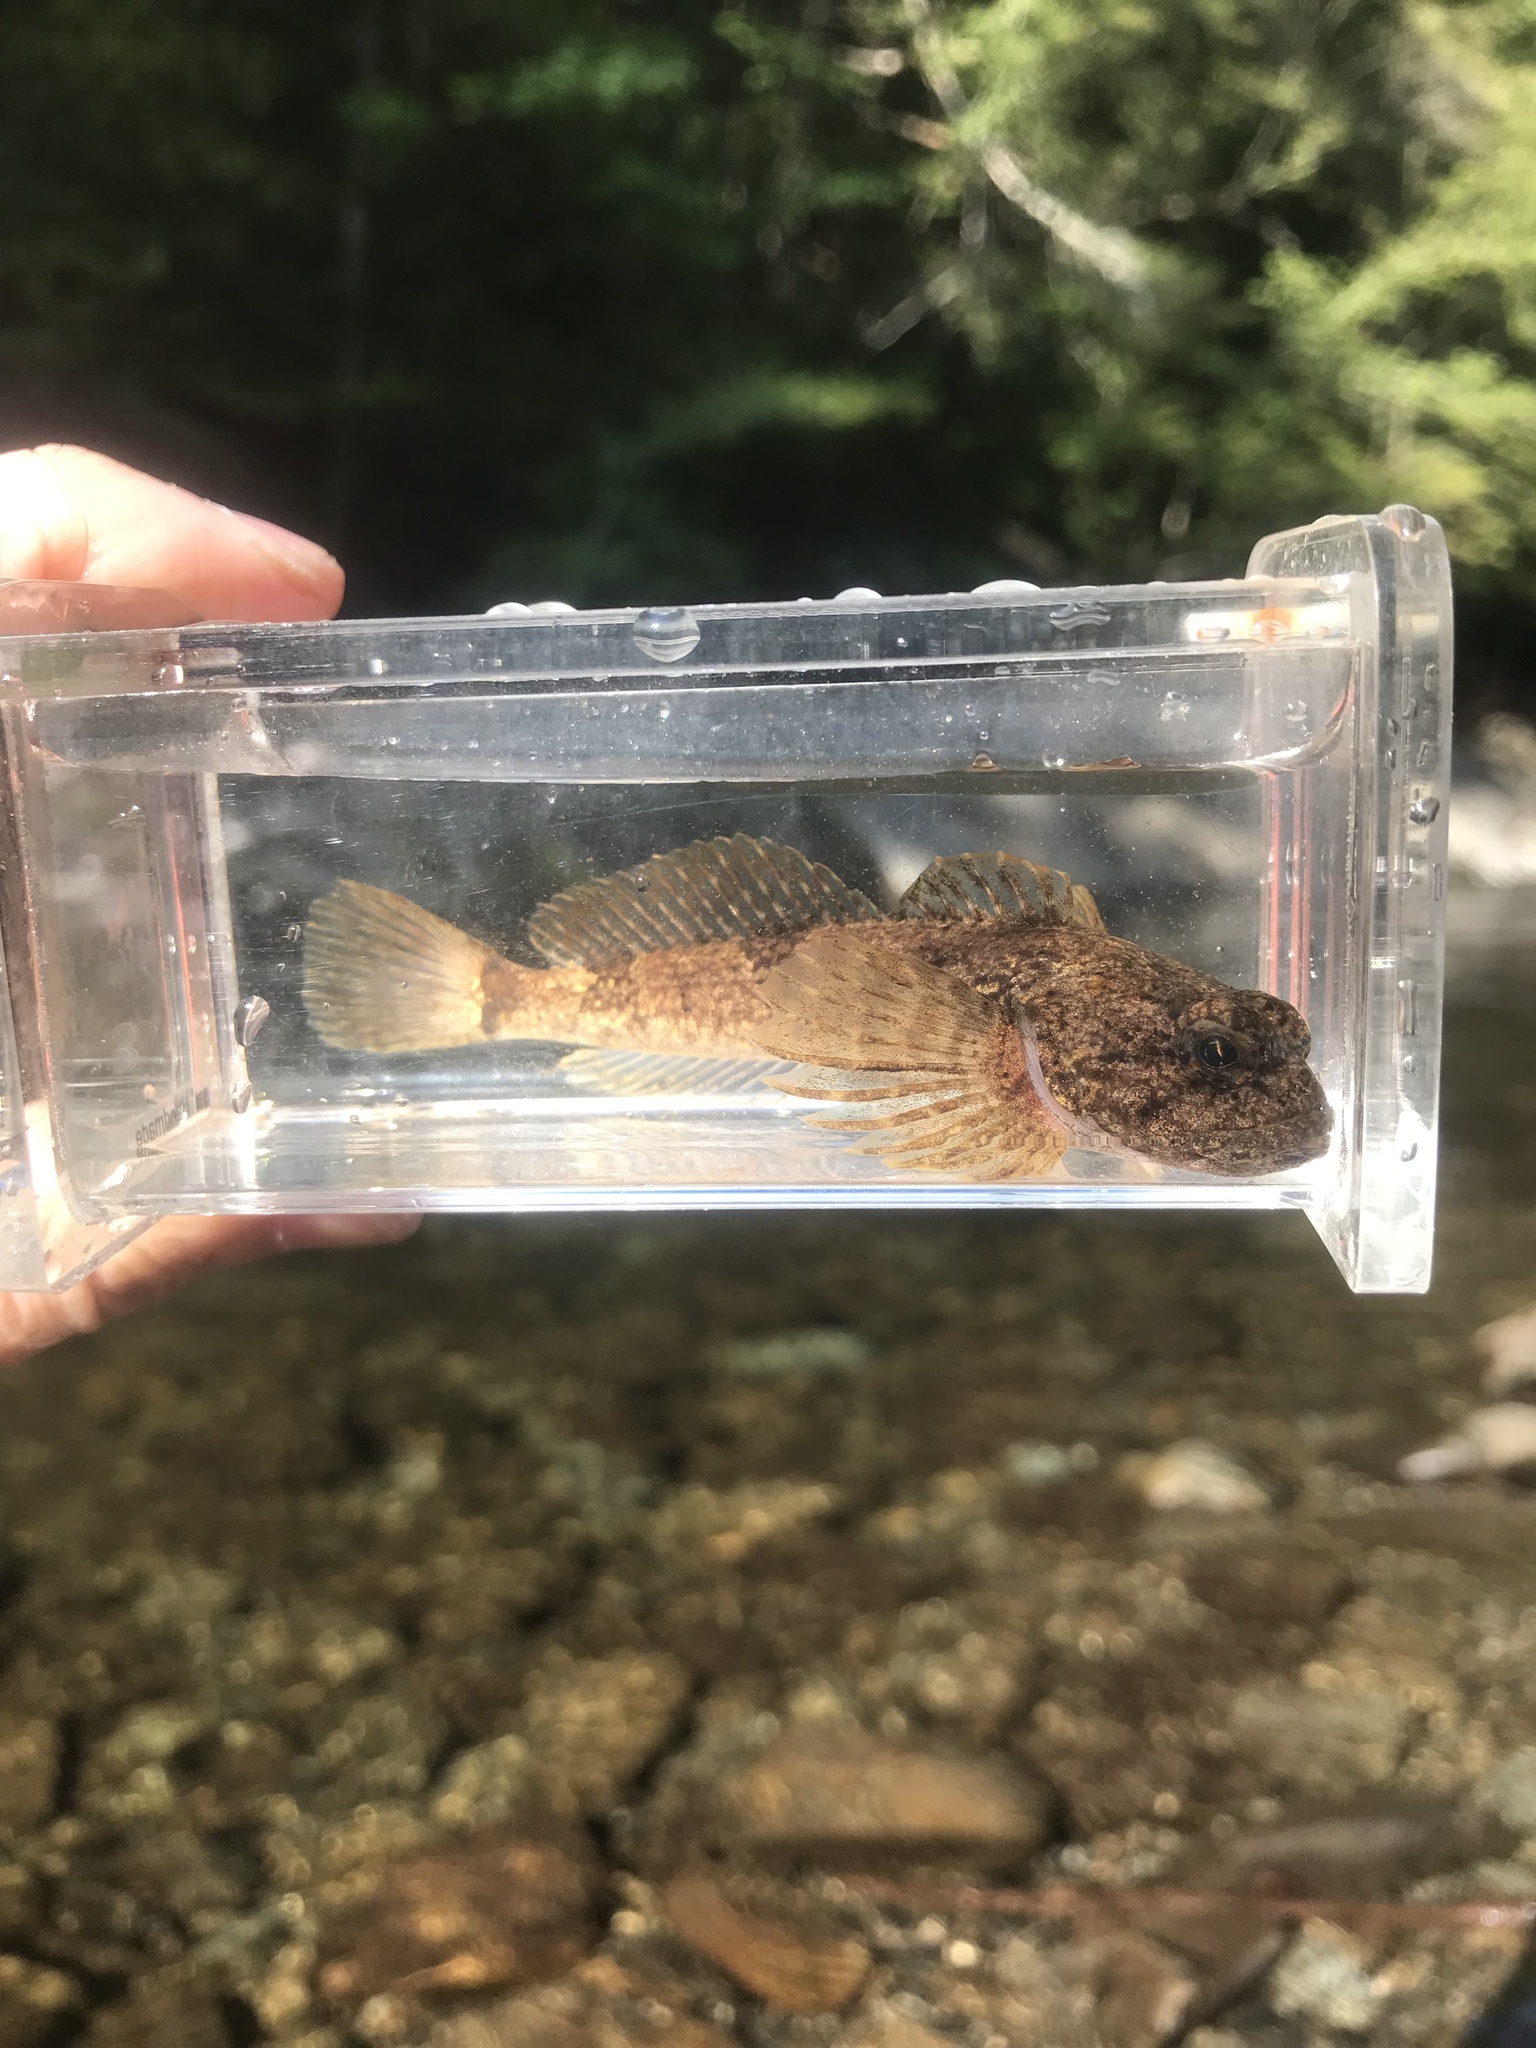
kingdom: Animalia
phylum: Chordata
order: Scorpaeniformes
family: Cottidae
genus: Cottus
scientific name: Cottus bairdii
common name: Mottled sculpin
